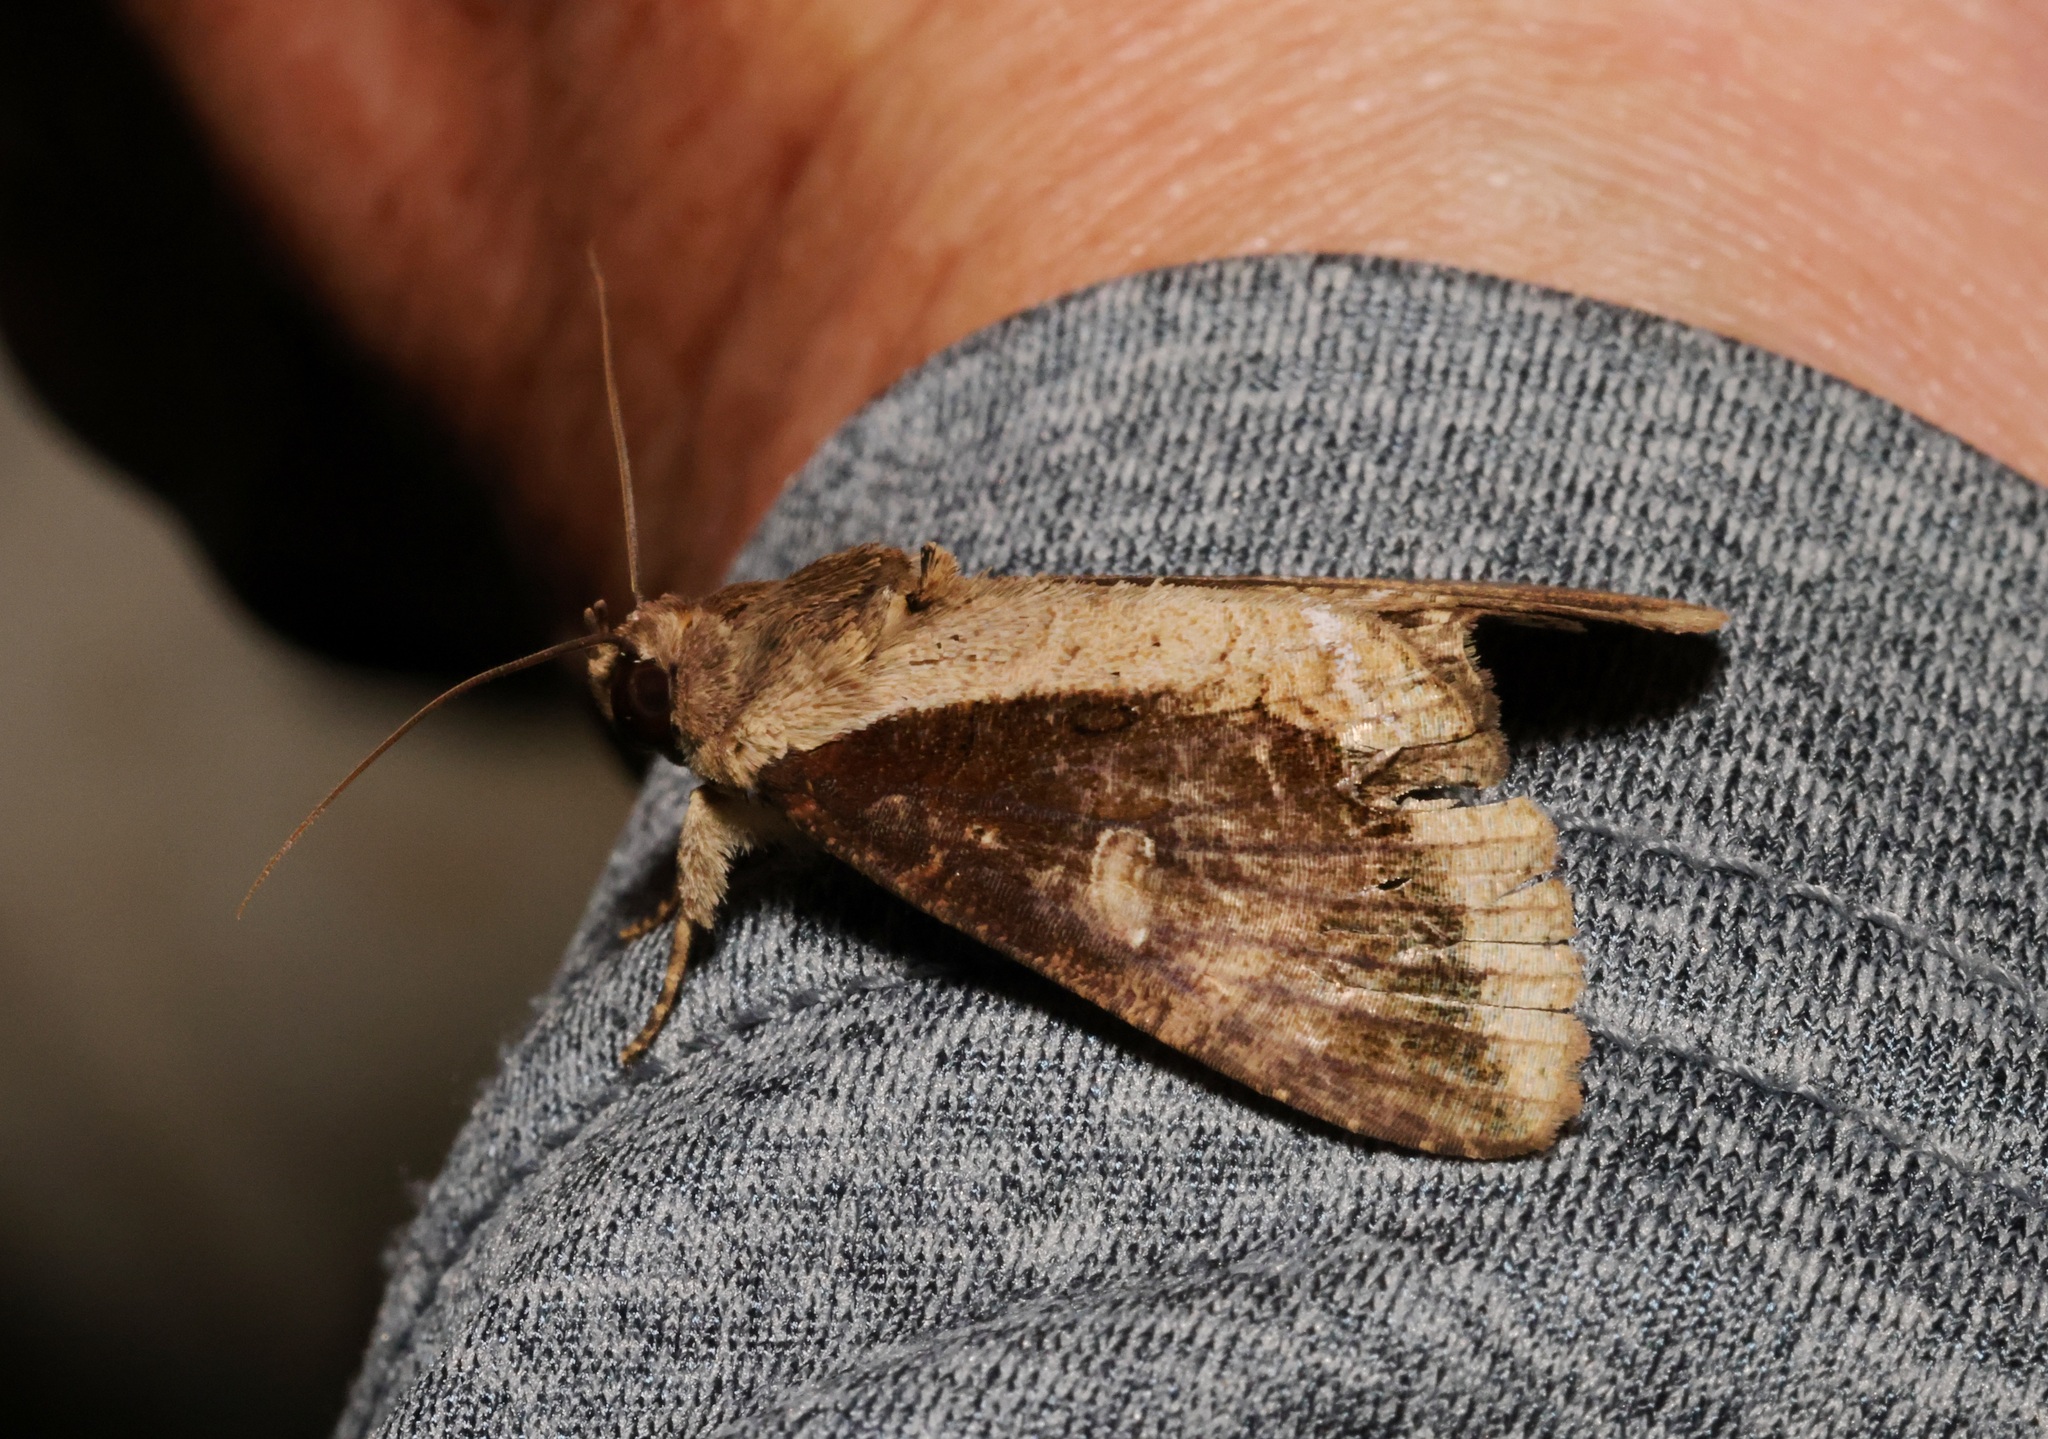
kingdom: Animalia
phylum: Arthropoda
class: Insecta
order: Lepidoptera
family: Erebidae
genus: Ercheia
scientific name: Ercheia cyllaria
